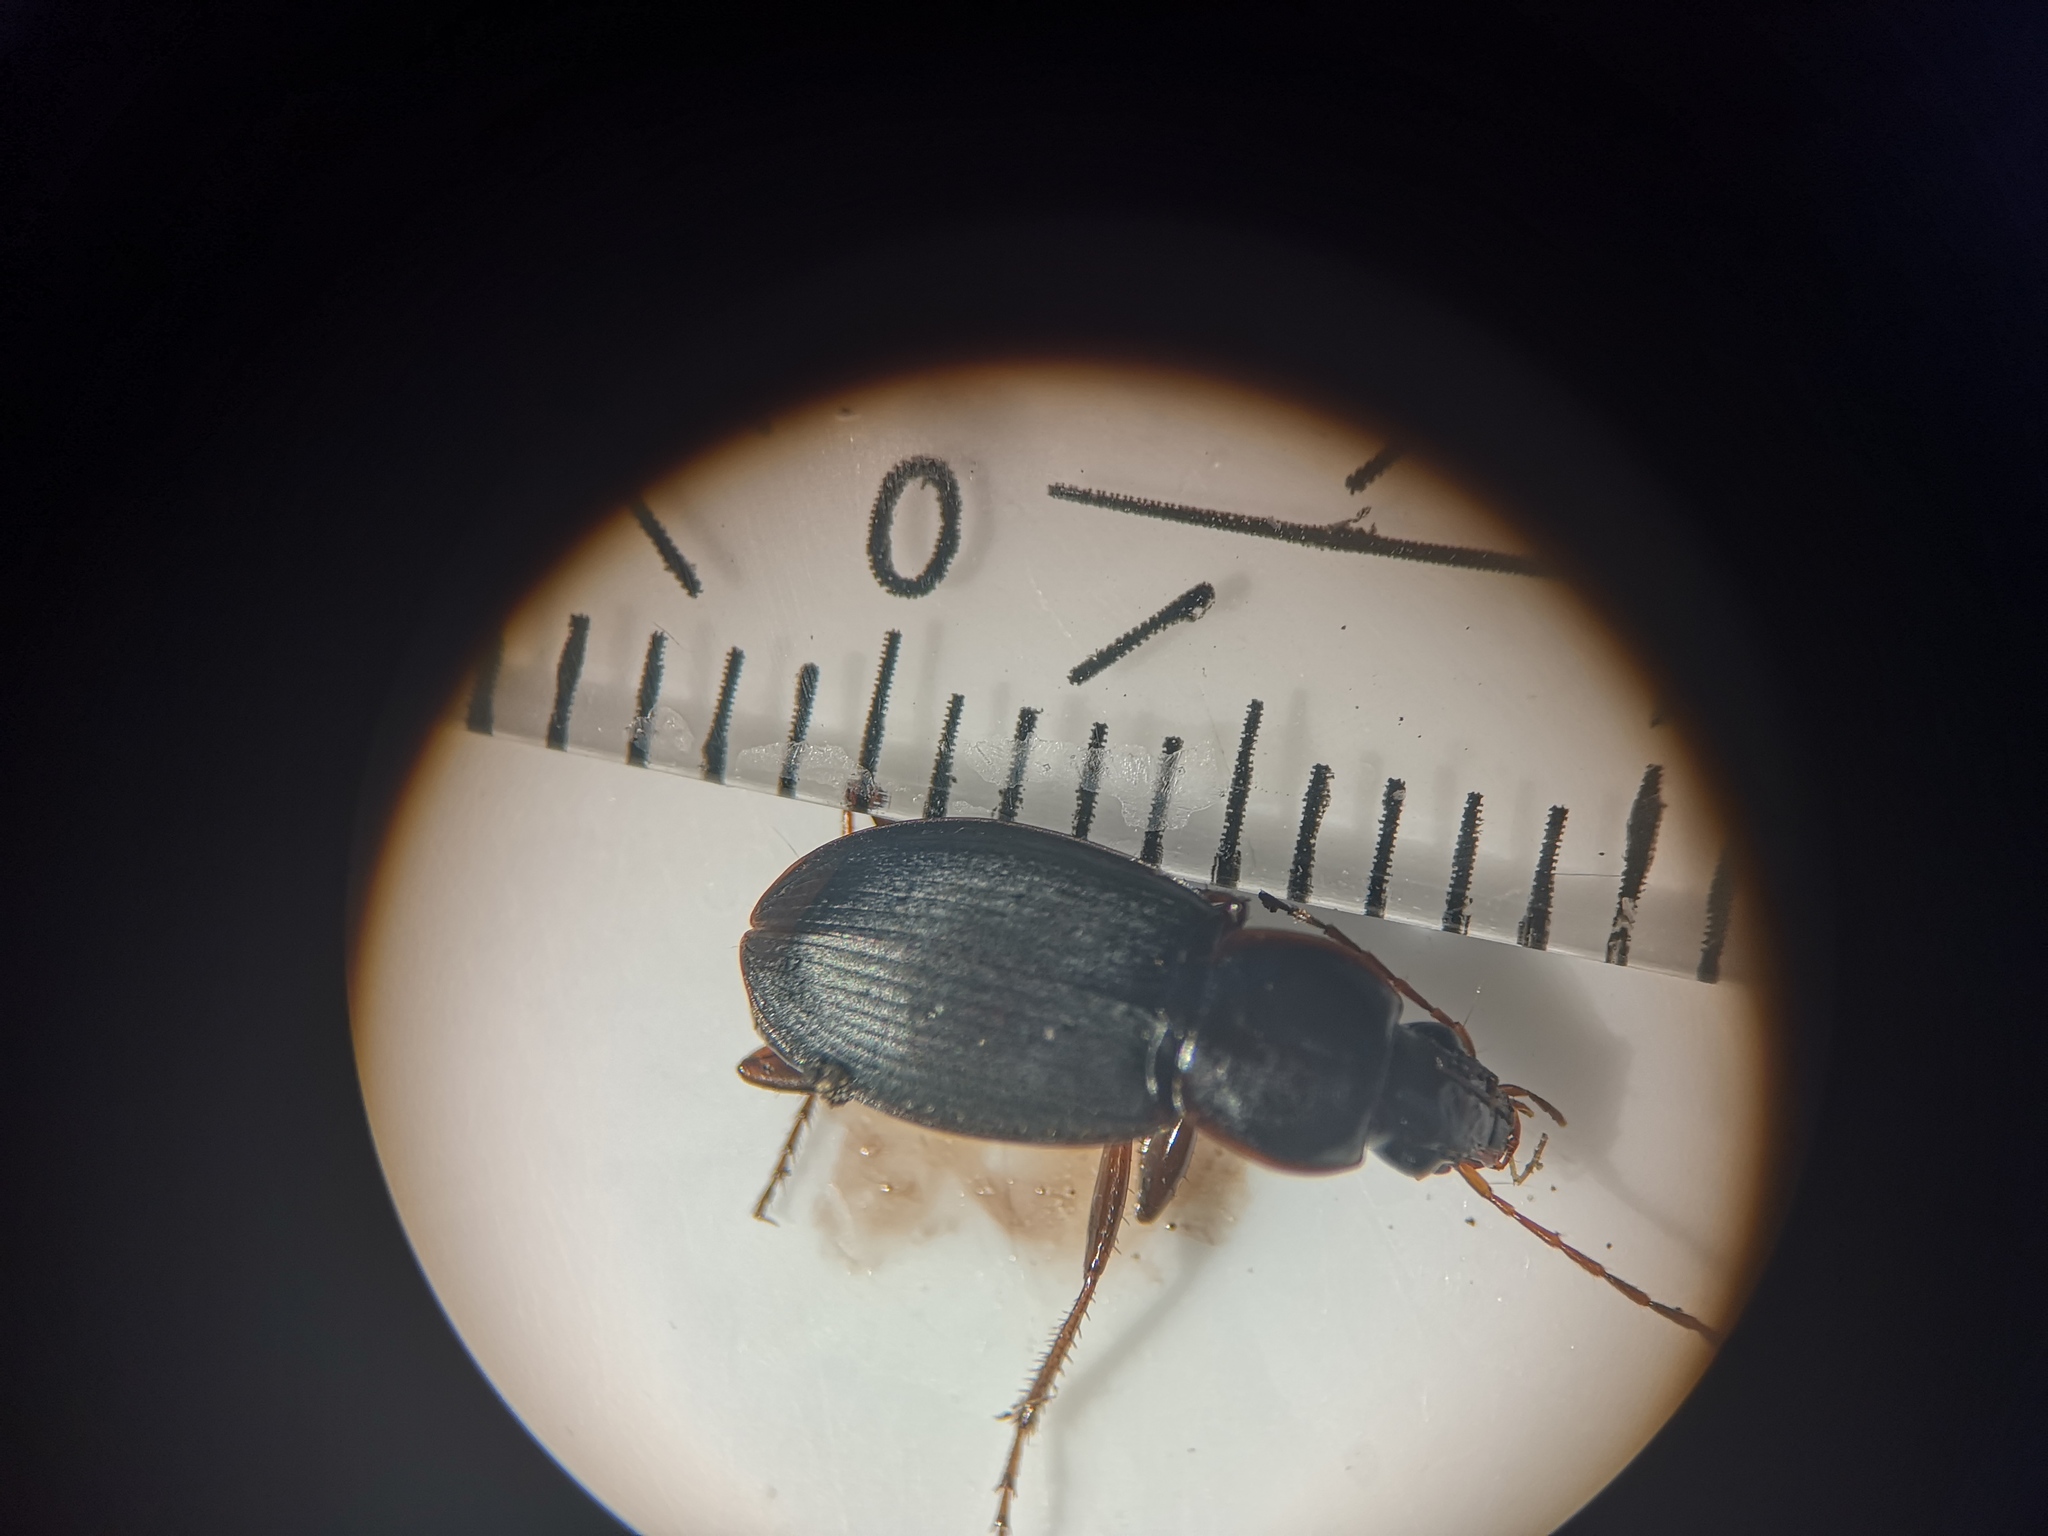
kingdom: Animalia
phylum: Arthropoda
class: Insecta
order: Coleoptera
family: Carabidae
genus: Calathus
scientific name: Calathus rotundicollis
